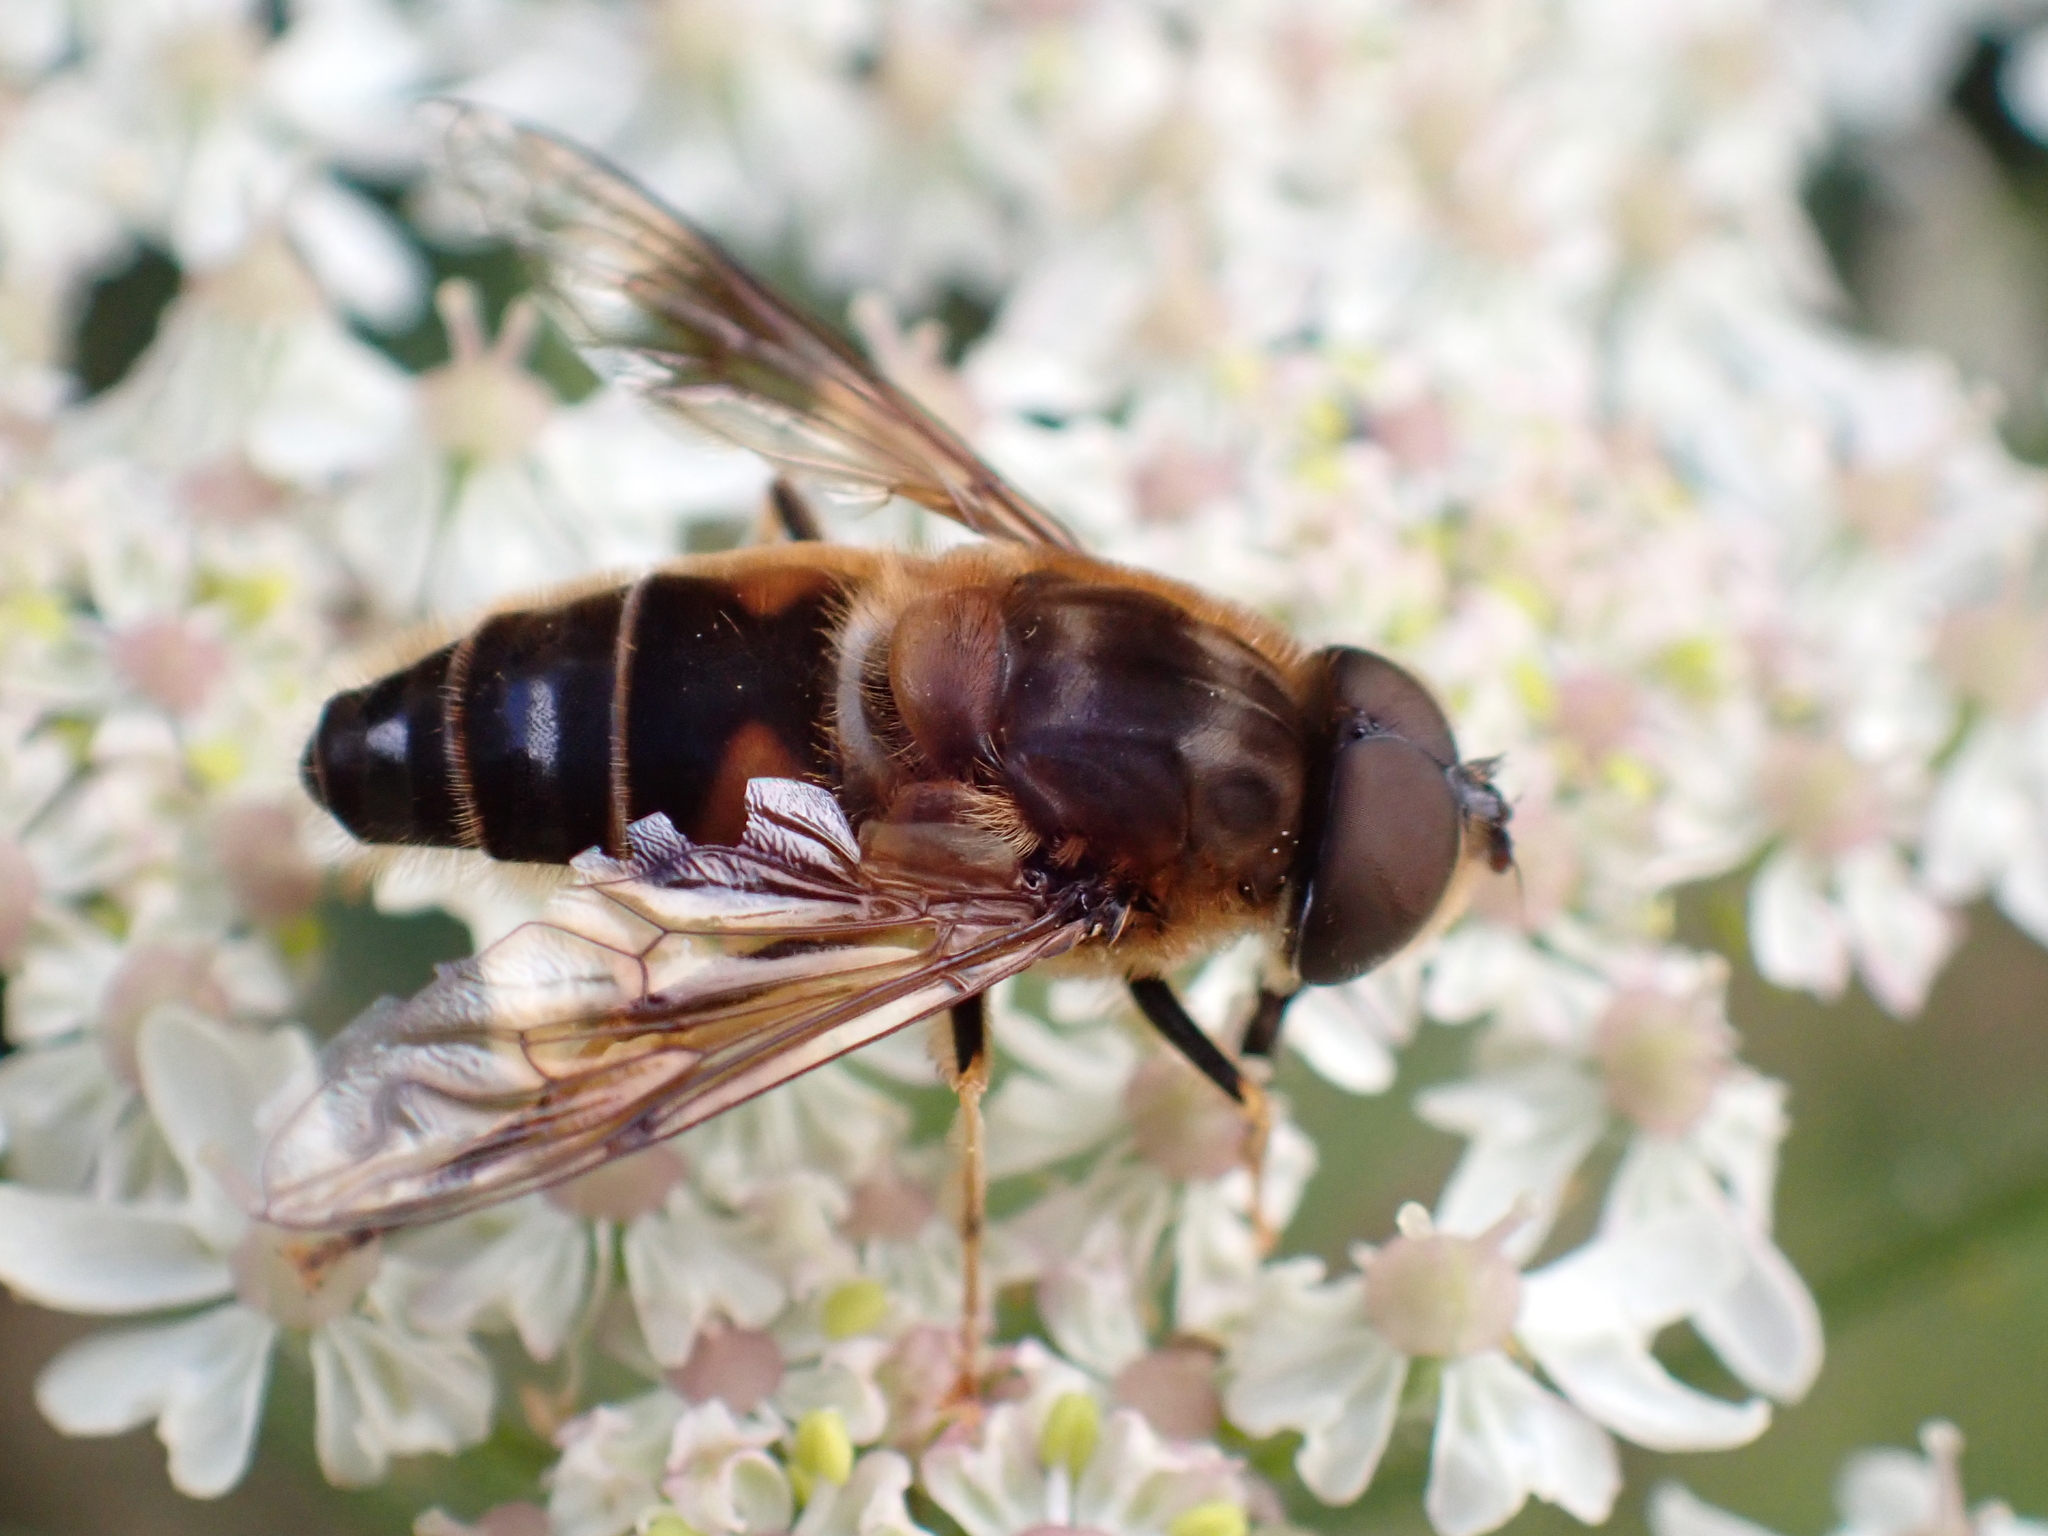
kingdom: Animalia
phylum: Arthropoda
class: Insecta
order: Diptera
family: Syrphidae
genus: Eristalis
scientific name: Eristalis pertinax
